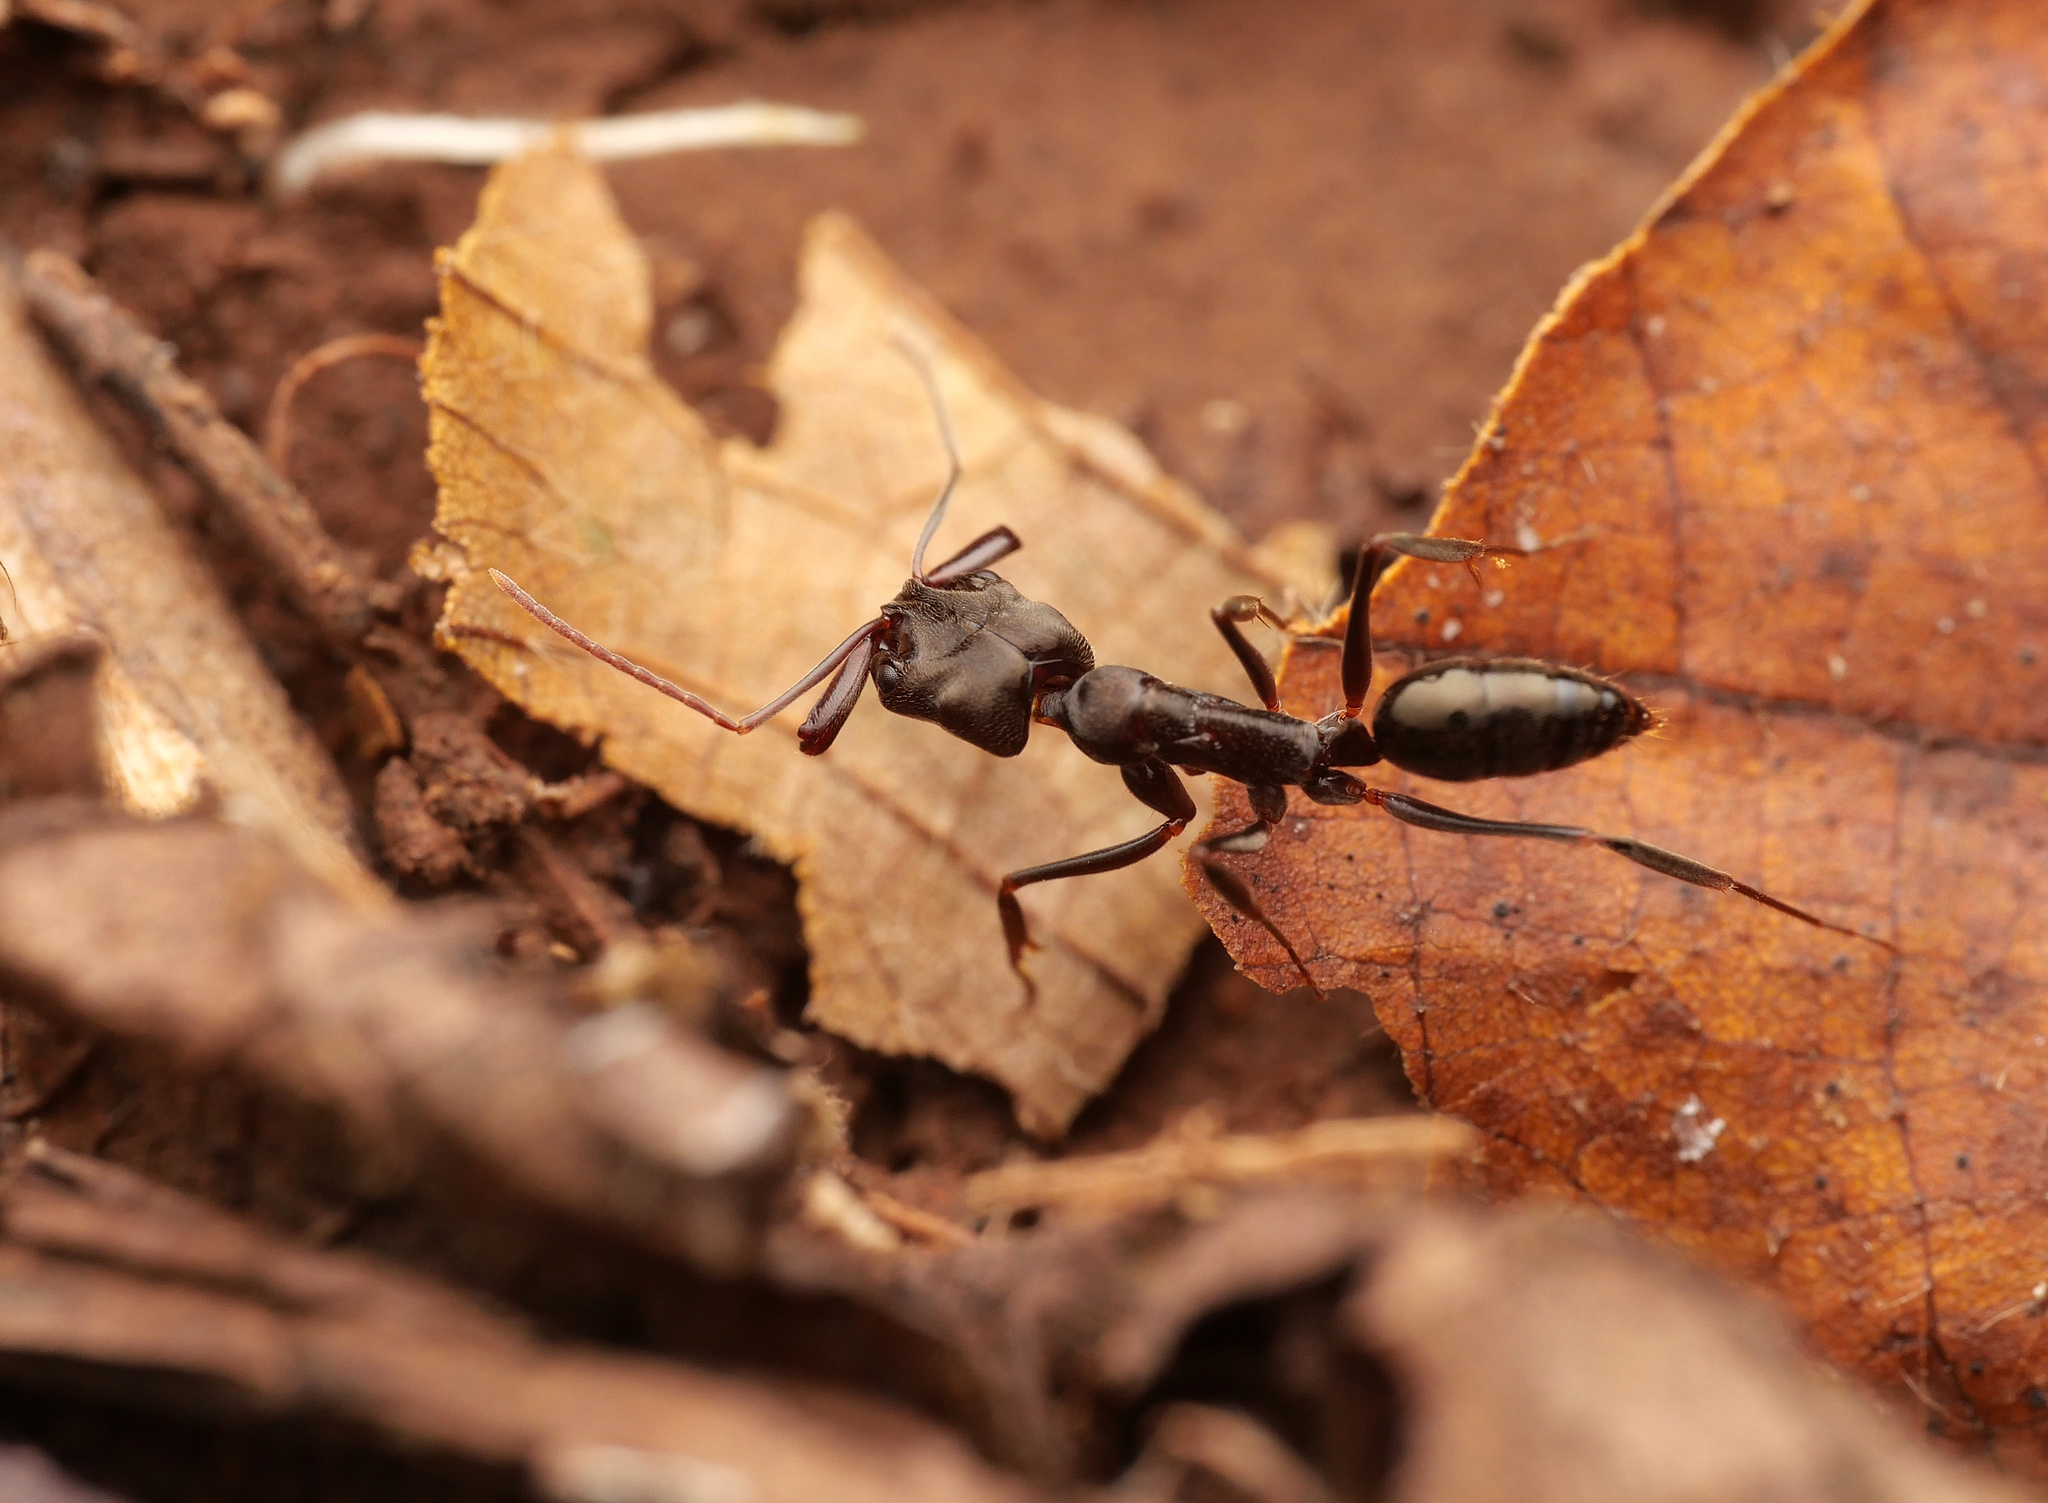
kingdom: Animalia
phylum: Arthropoda
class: Insecta
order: Hymenoptera
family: Formicidae
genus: Odontomachus
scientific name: Odontomachus simillimus
